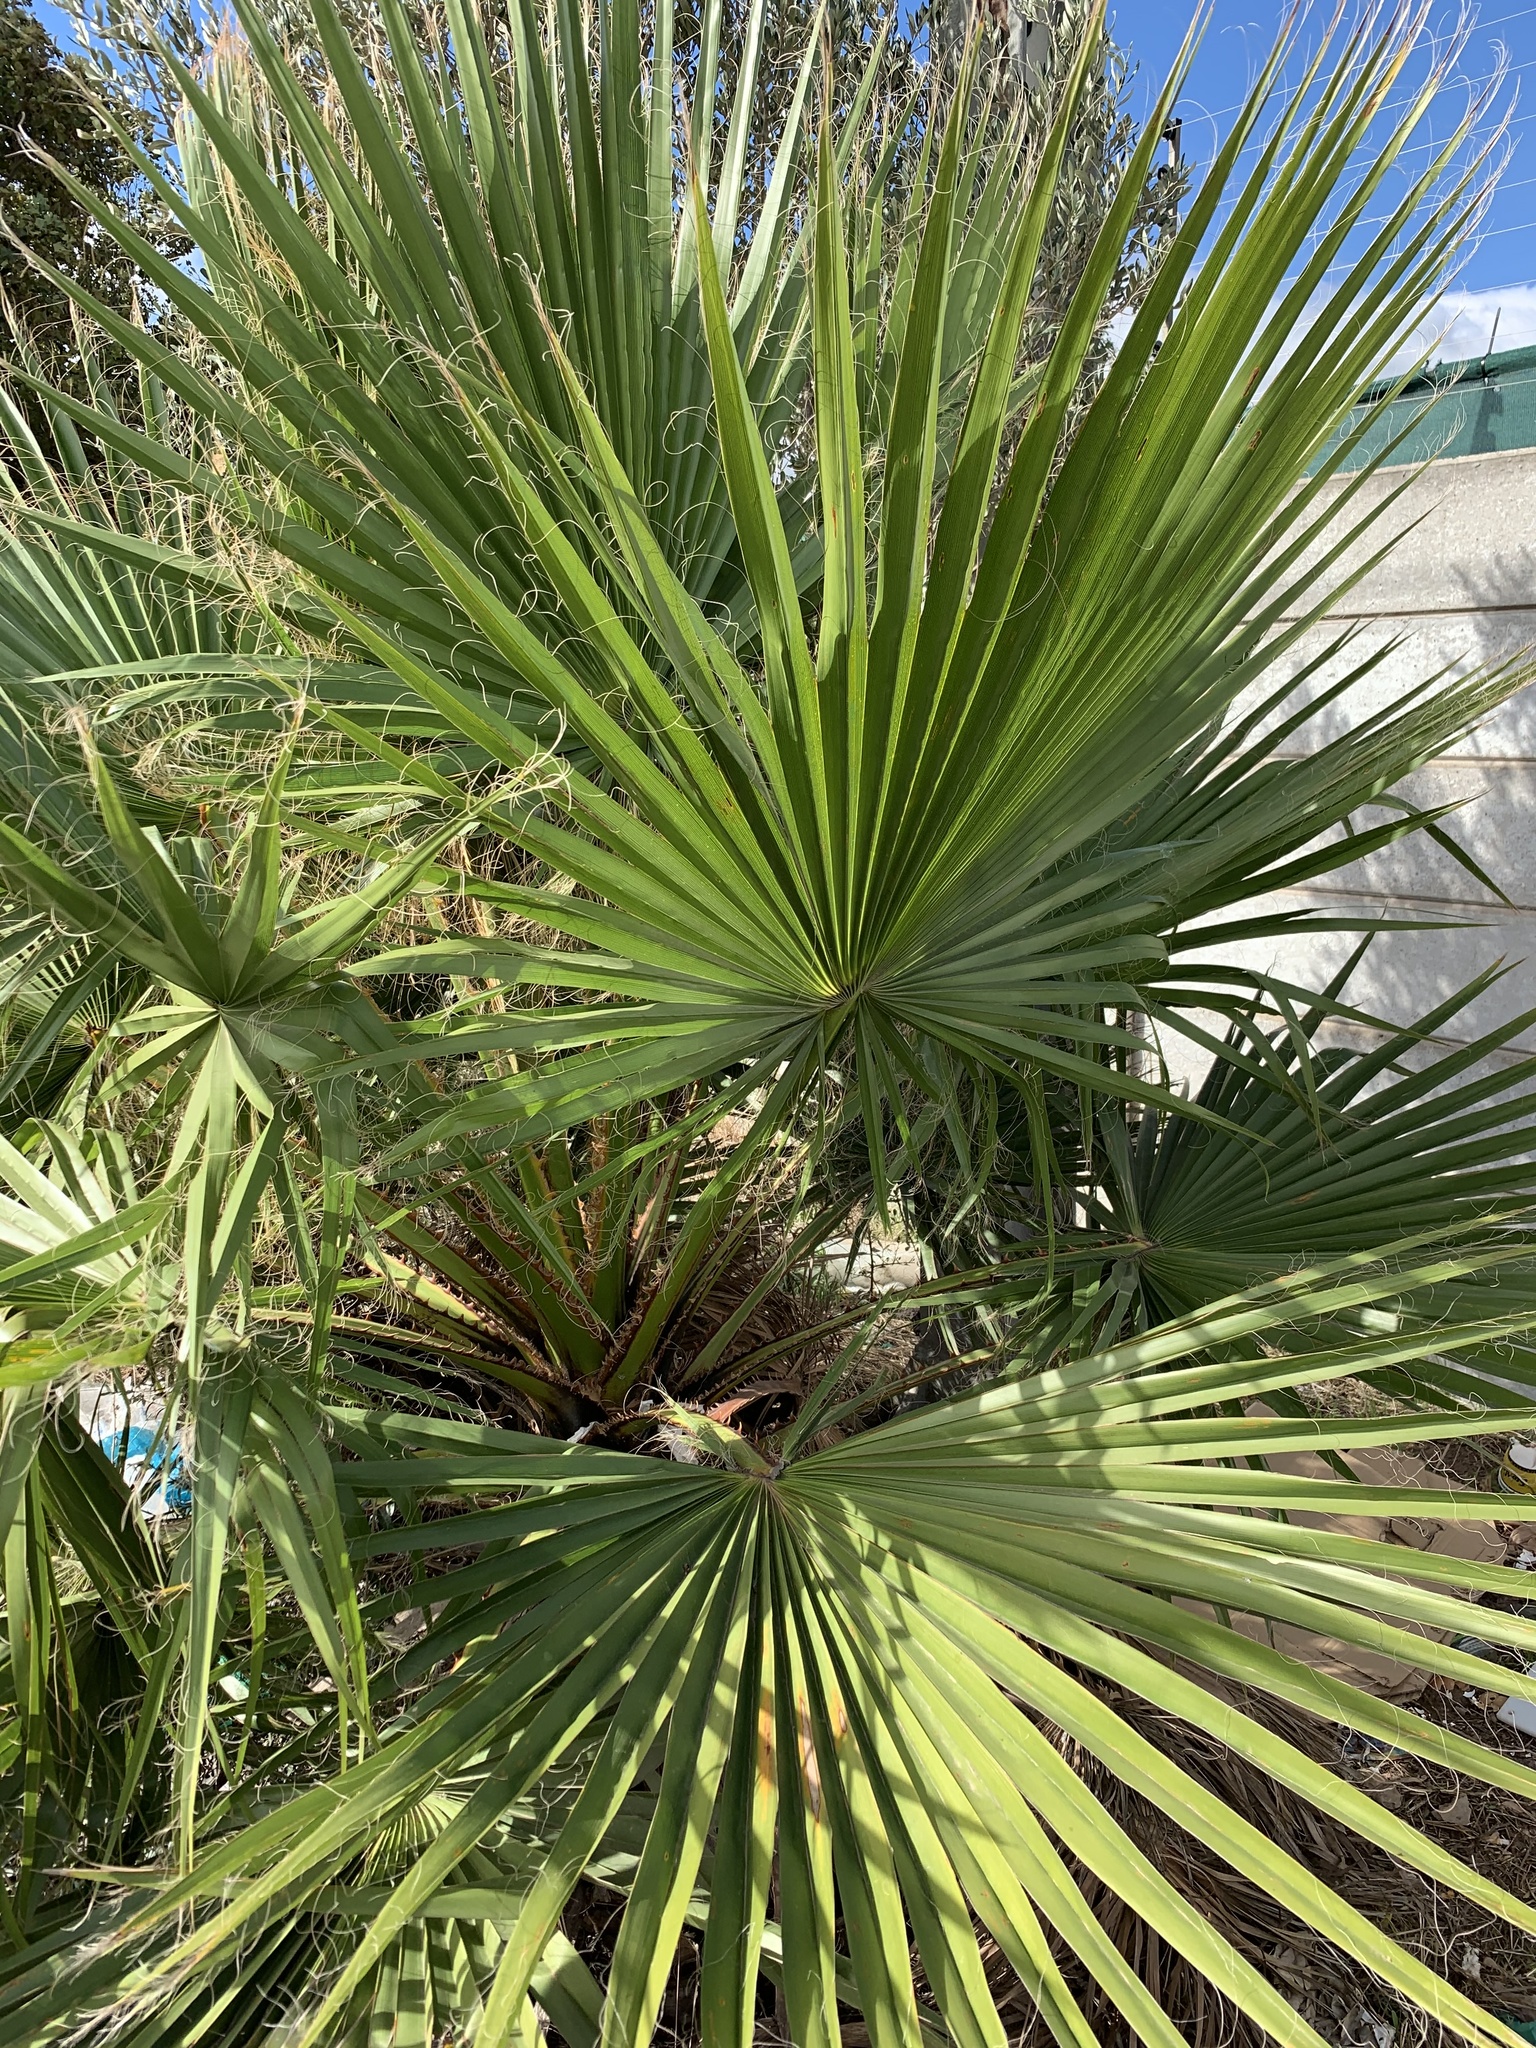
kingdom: Plantae
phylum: Tracheophyta
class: Liliopsida
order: Arecales
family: Arecaceae
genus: Washingtonia
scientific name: Washingtonia robusta
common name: Mexican fan palm
